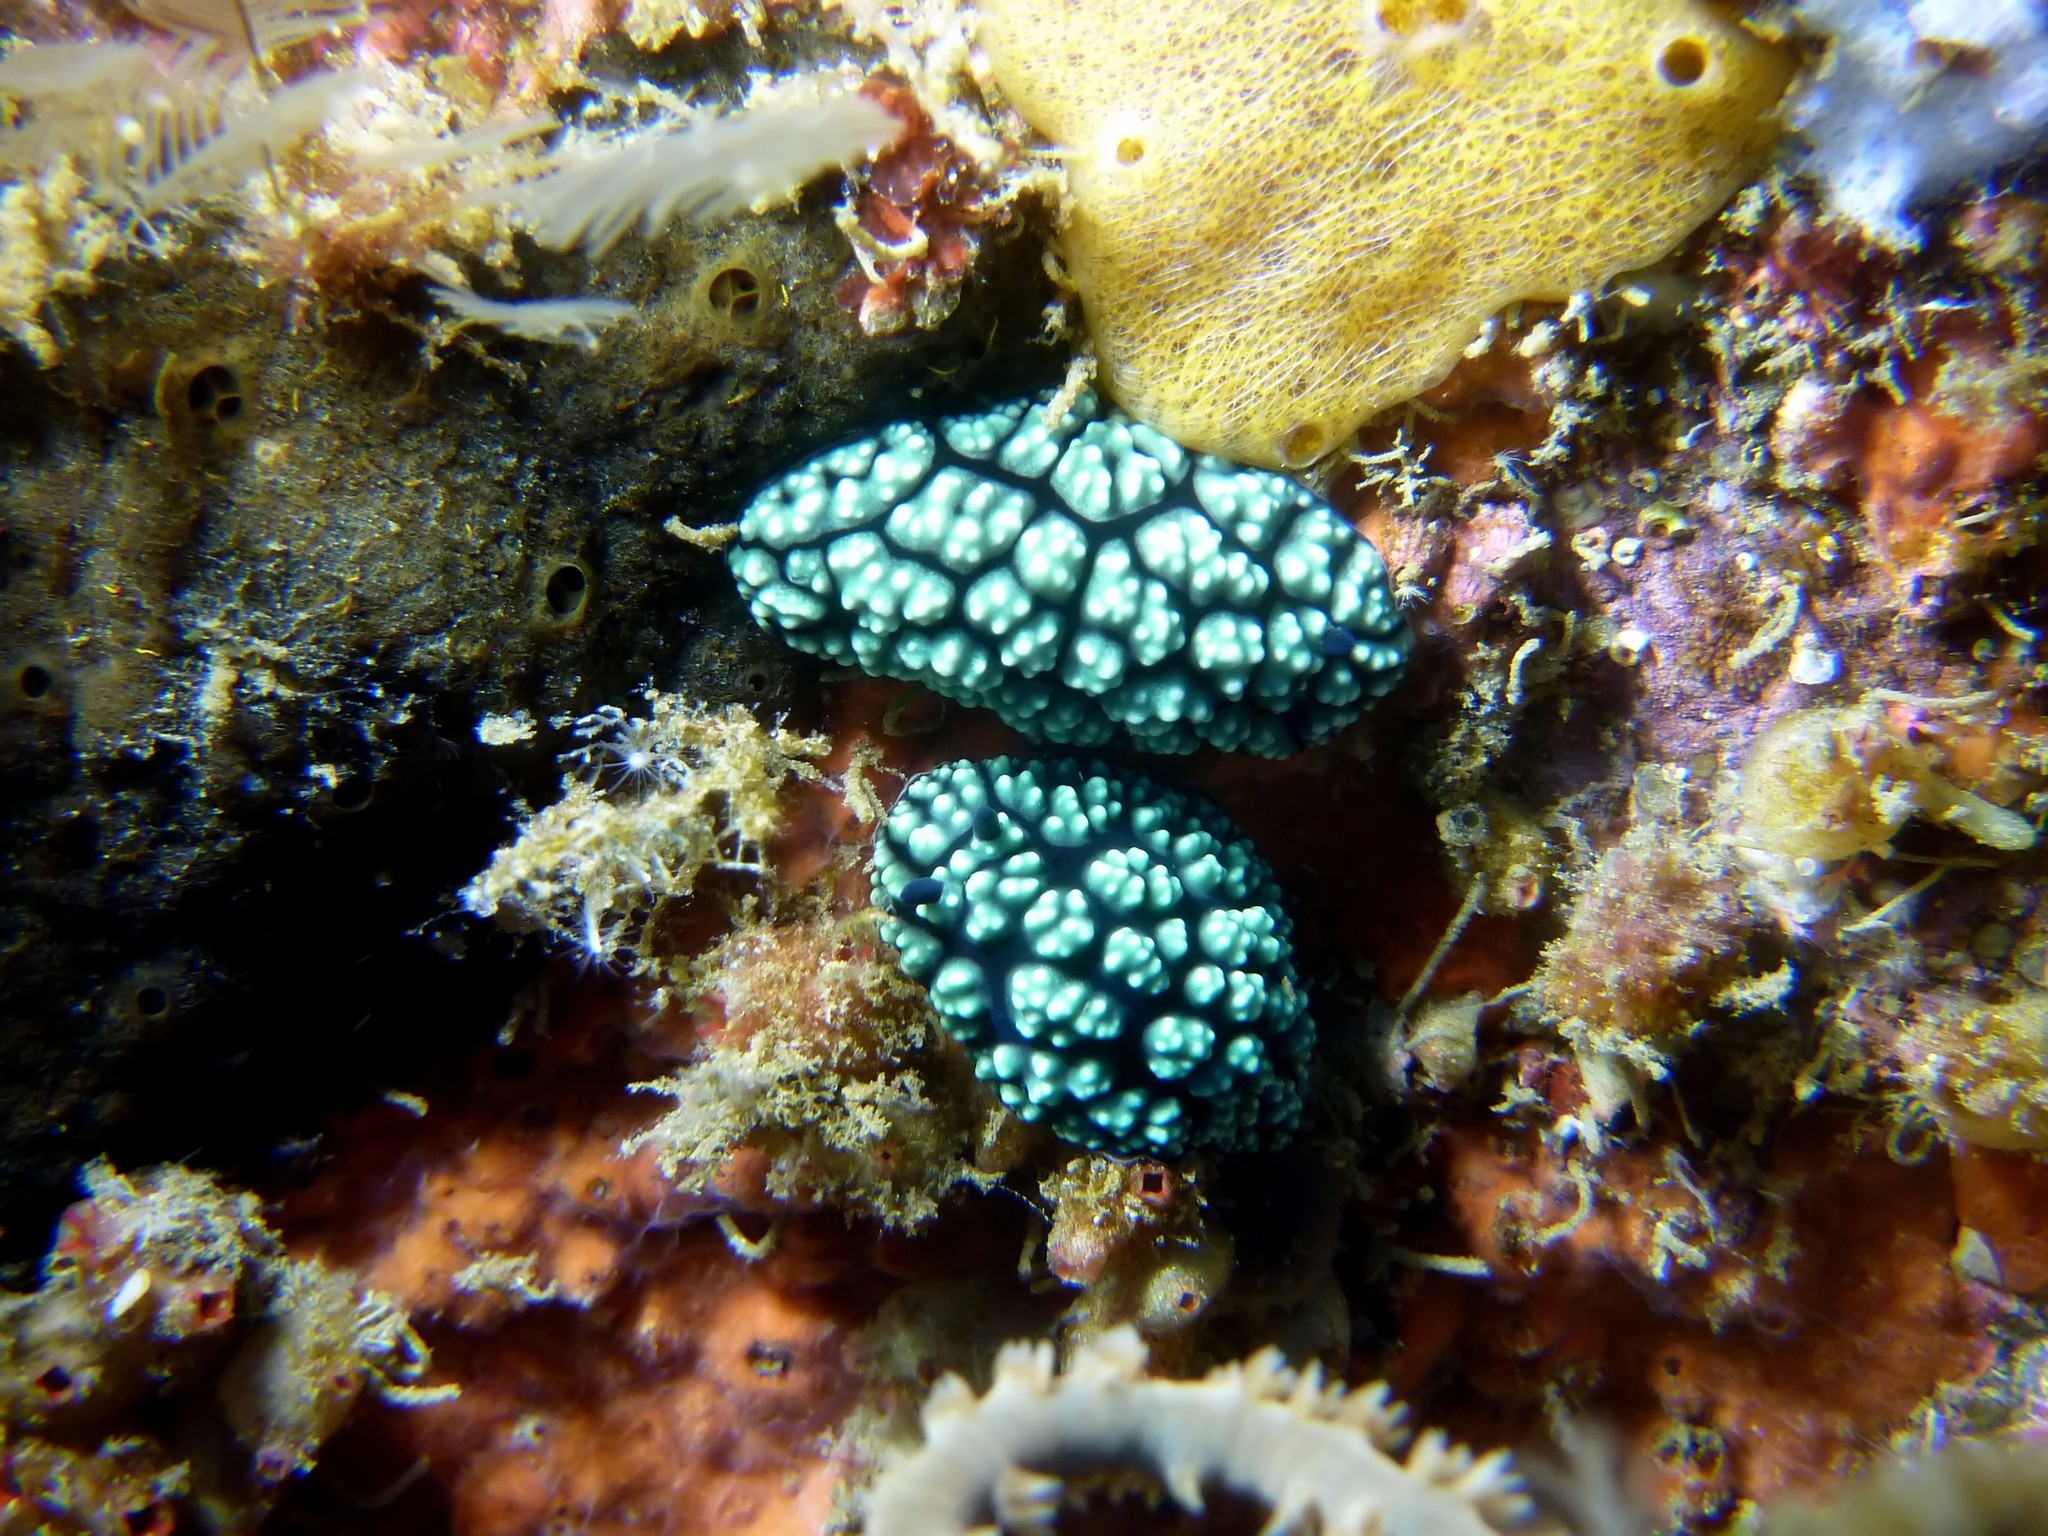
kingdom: Animalia
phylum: Mollusca
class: Gastropoda
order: Nudibranchia
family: Phyllidiidae
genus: Phyllidiella
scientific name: Phyllidiella pustulosa
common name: Pustular phyllidia
